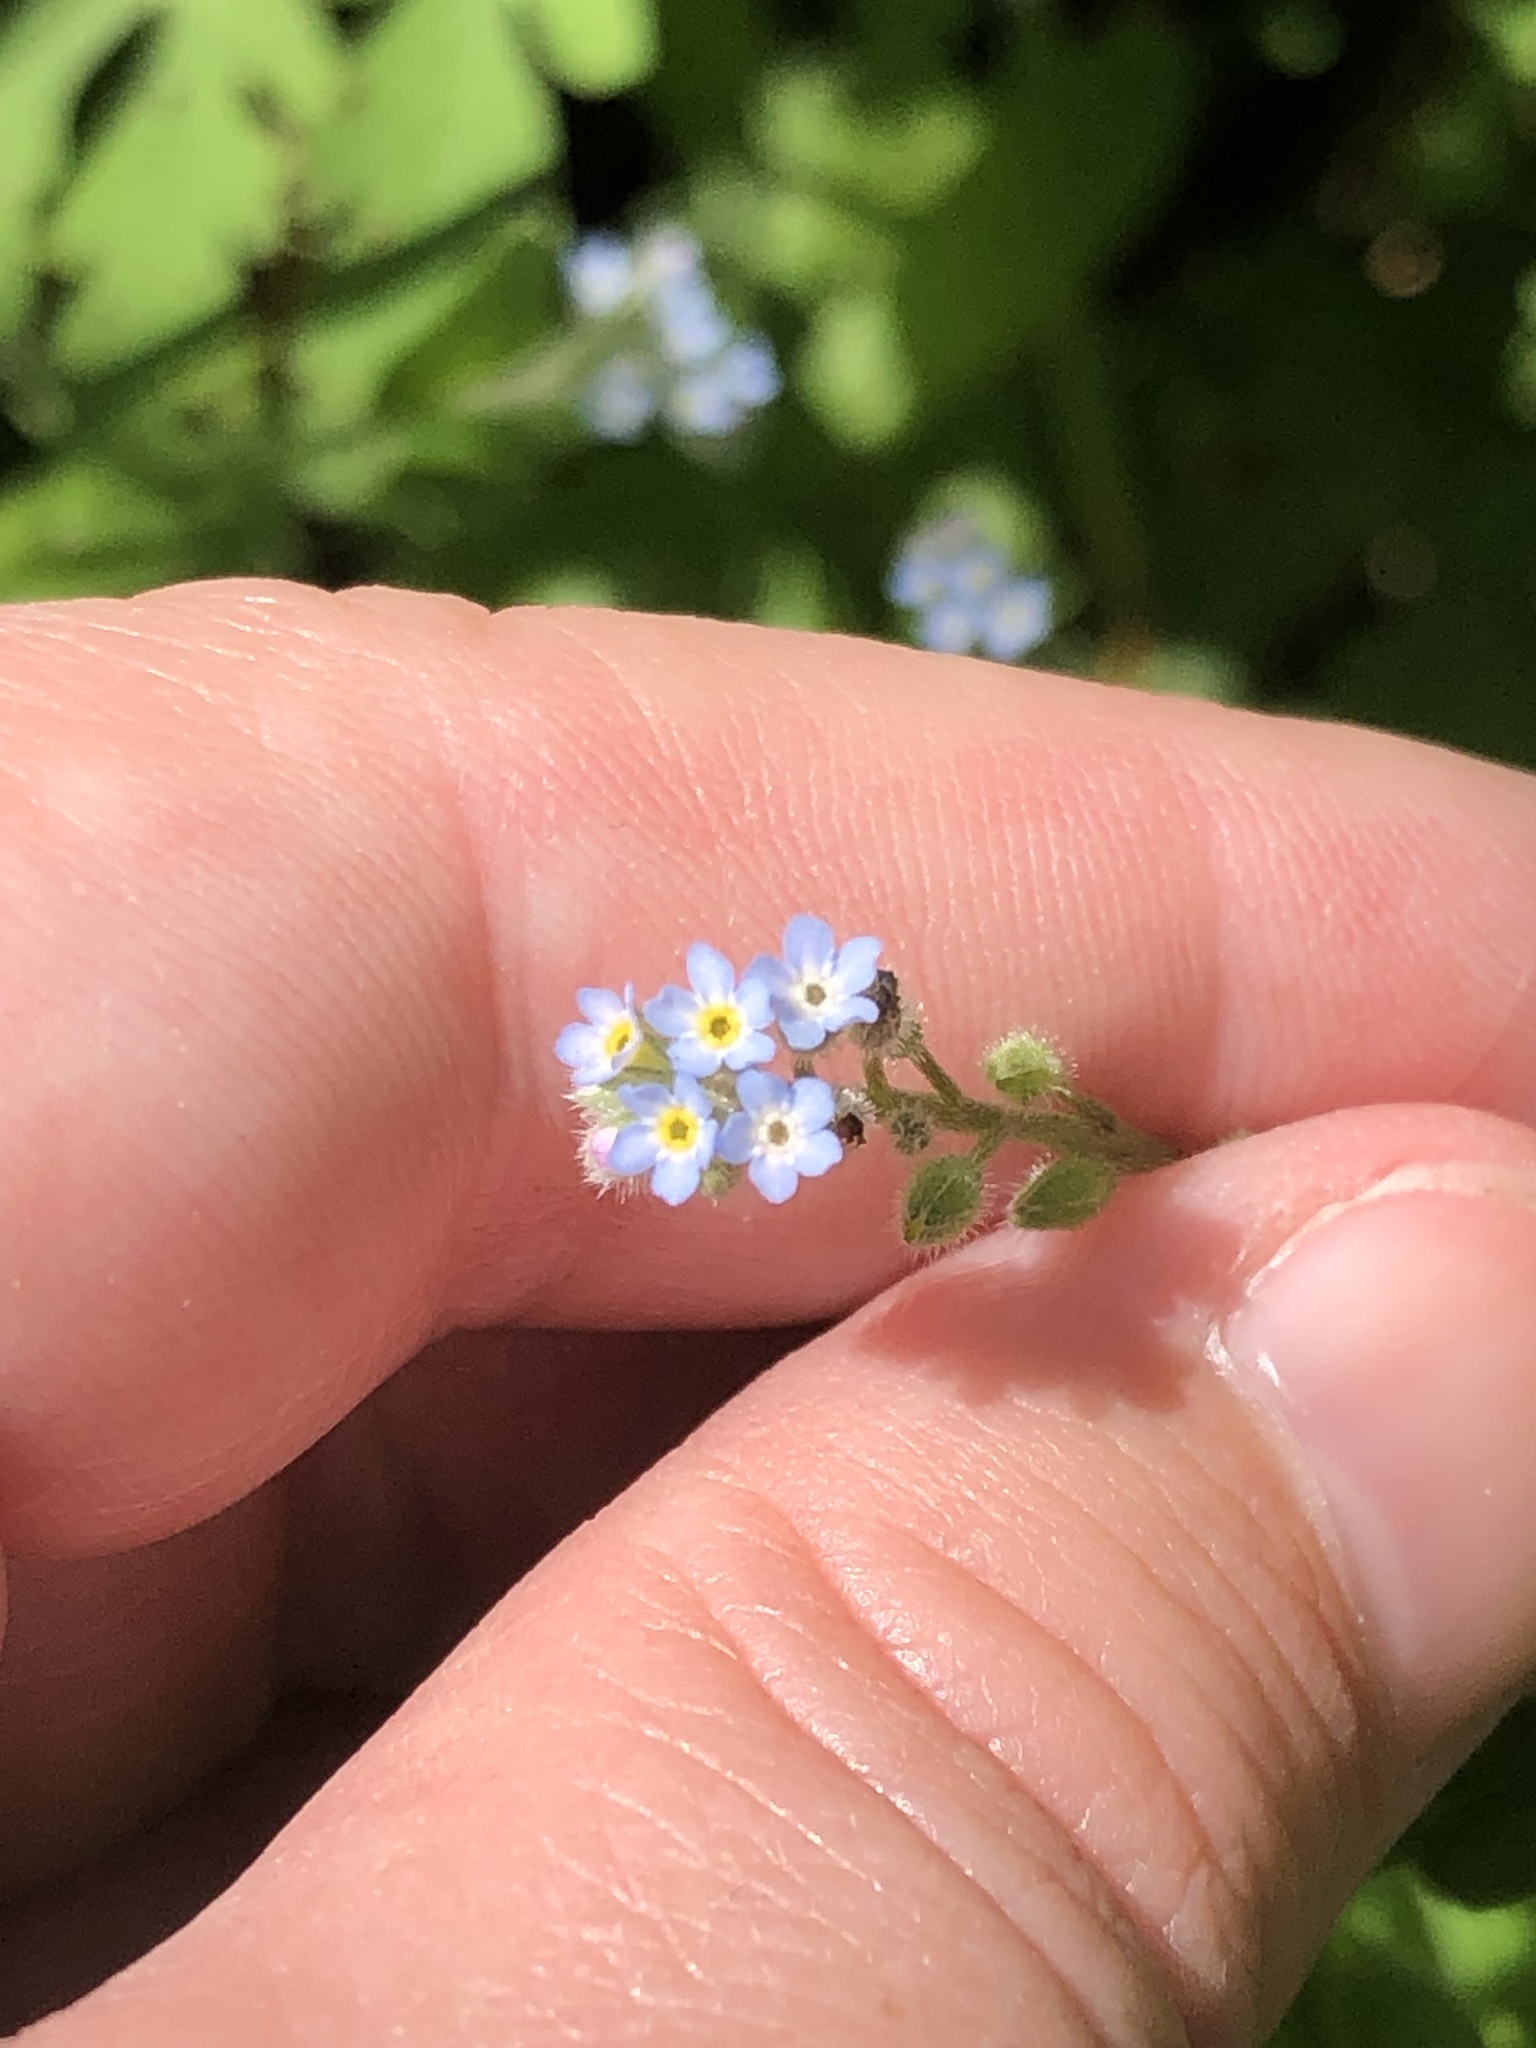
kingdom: Plantae
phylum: Tracheophyta
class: Magnoliopsida
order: Boraginales
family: Boraginaceae
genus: Myosotis
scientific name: Myosotis arvensis
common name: Field forget-me-not
